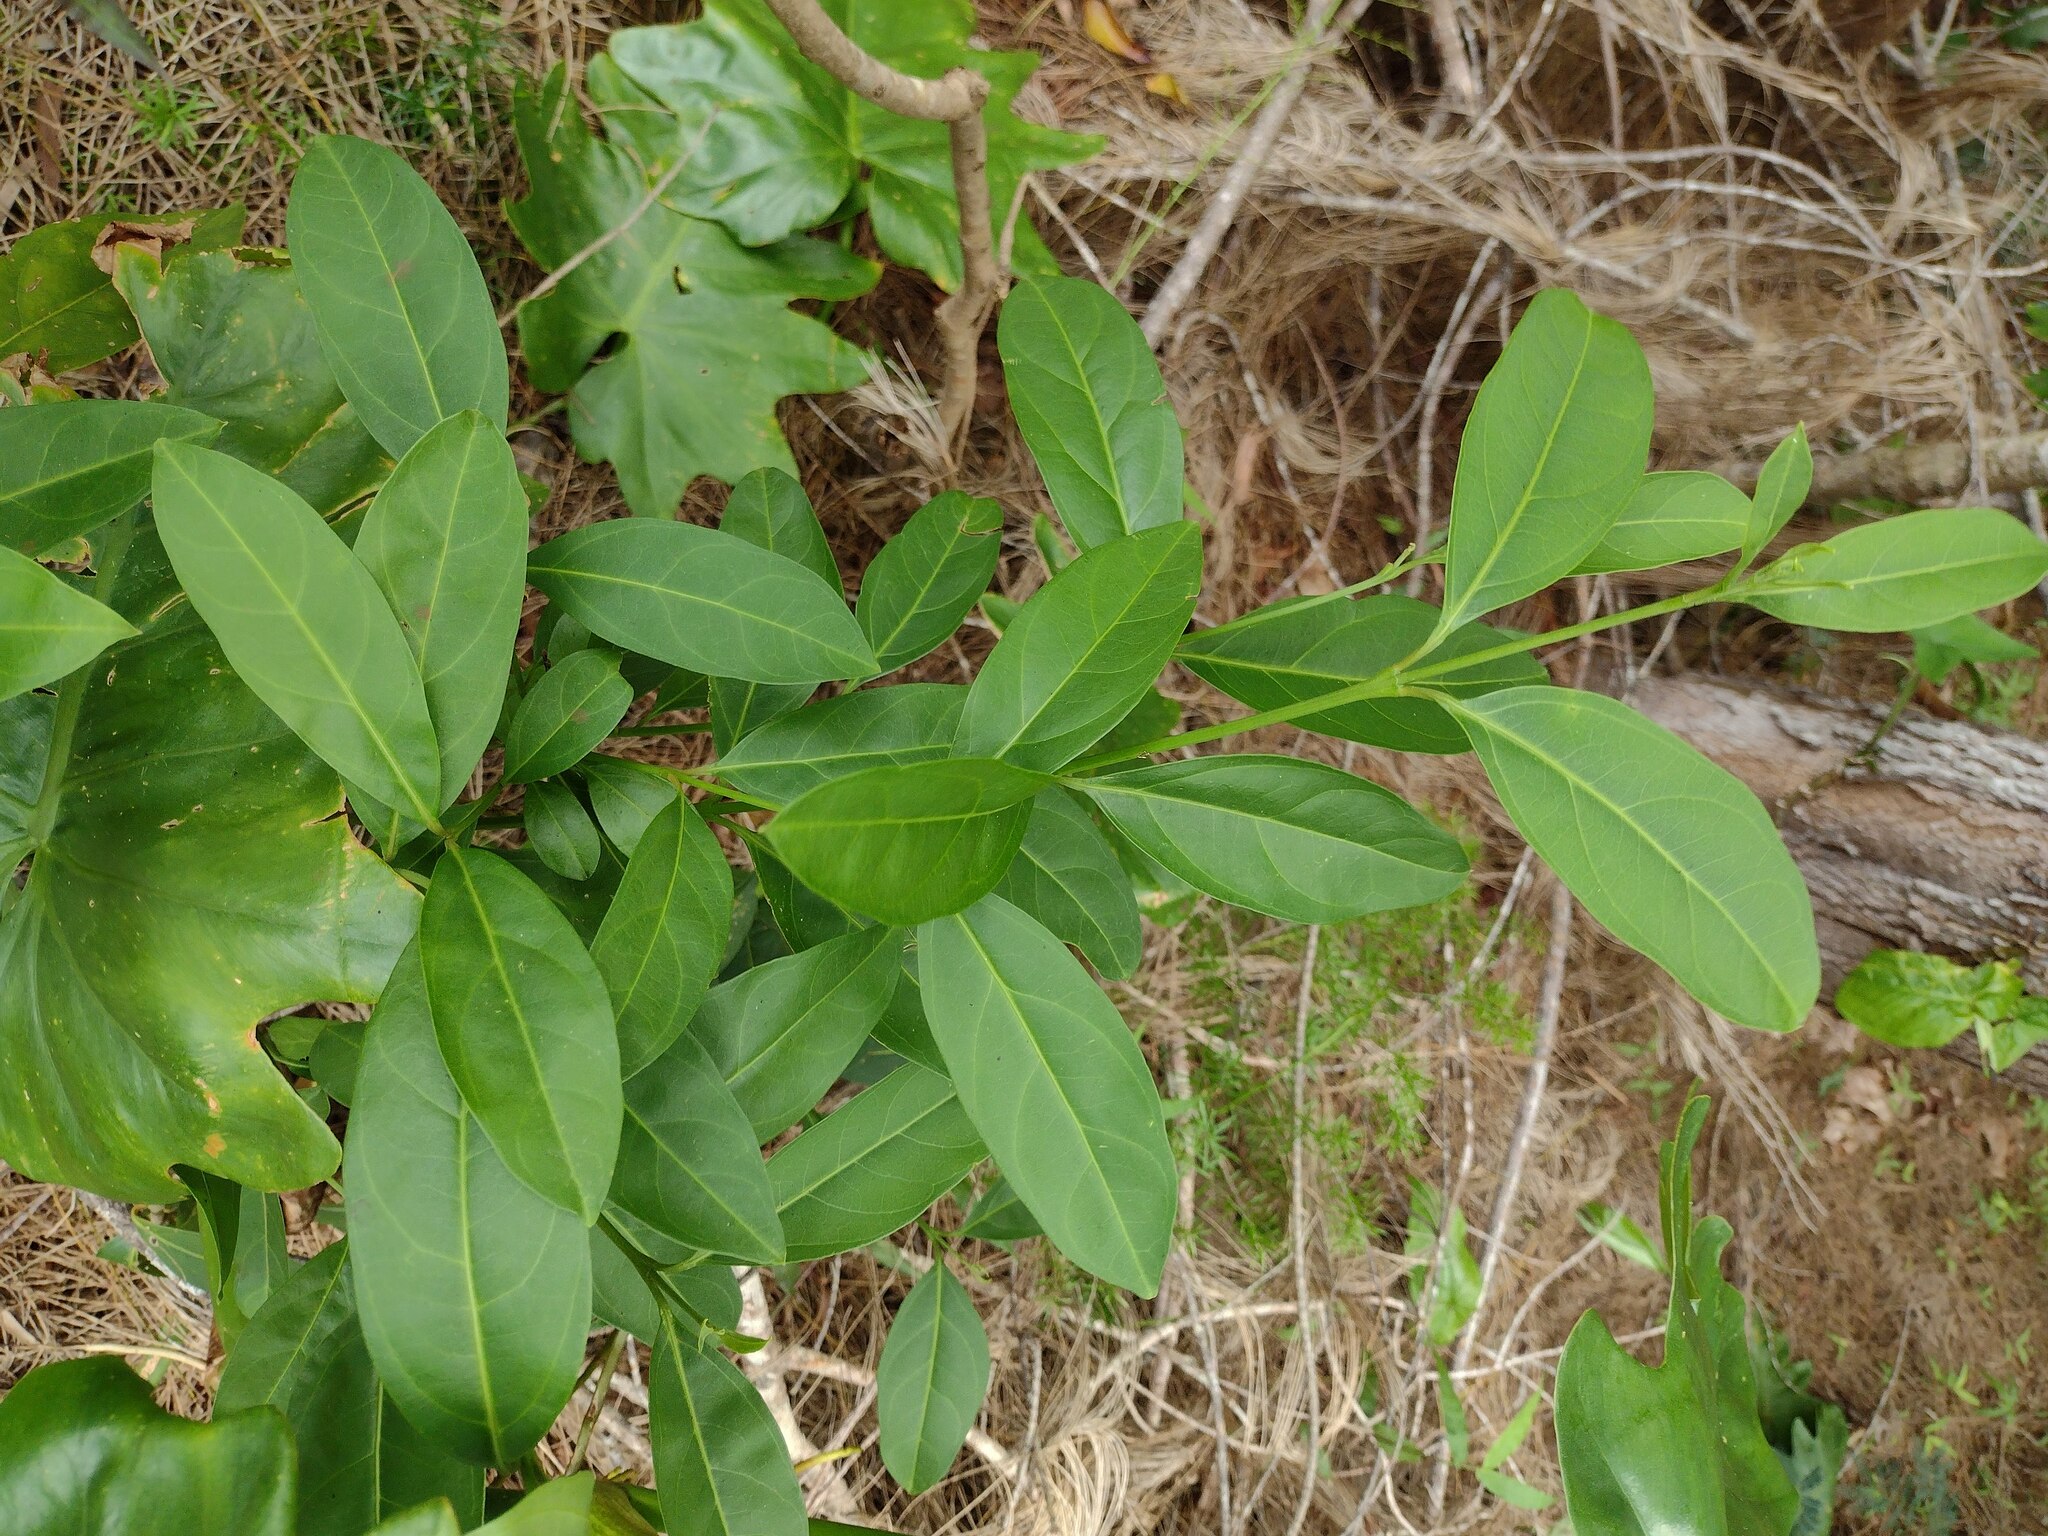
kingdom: Plantae
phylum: Tracheophyta
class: Magnoliopsida
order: Lamiales
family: Verbenaceae
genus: Citharexylum
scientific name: Citharexylum caudatum
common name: Fiddlewood
